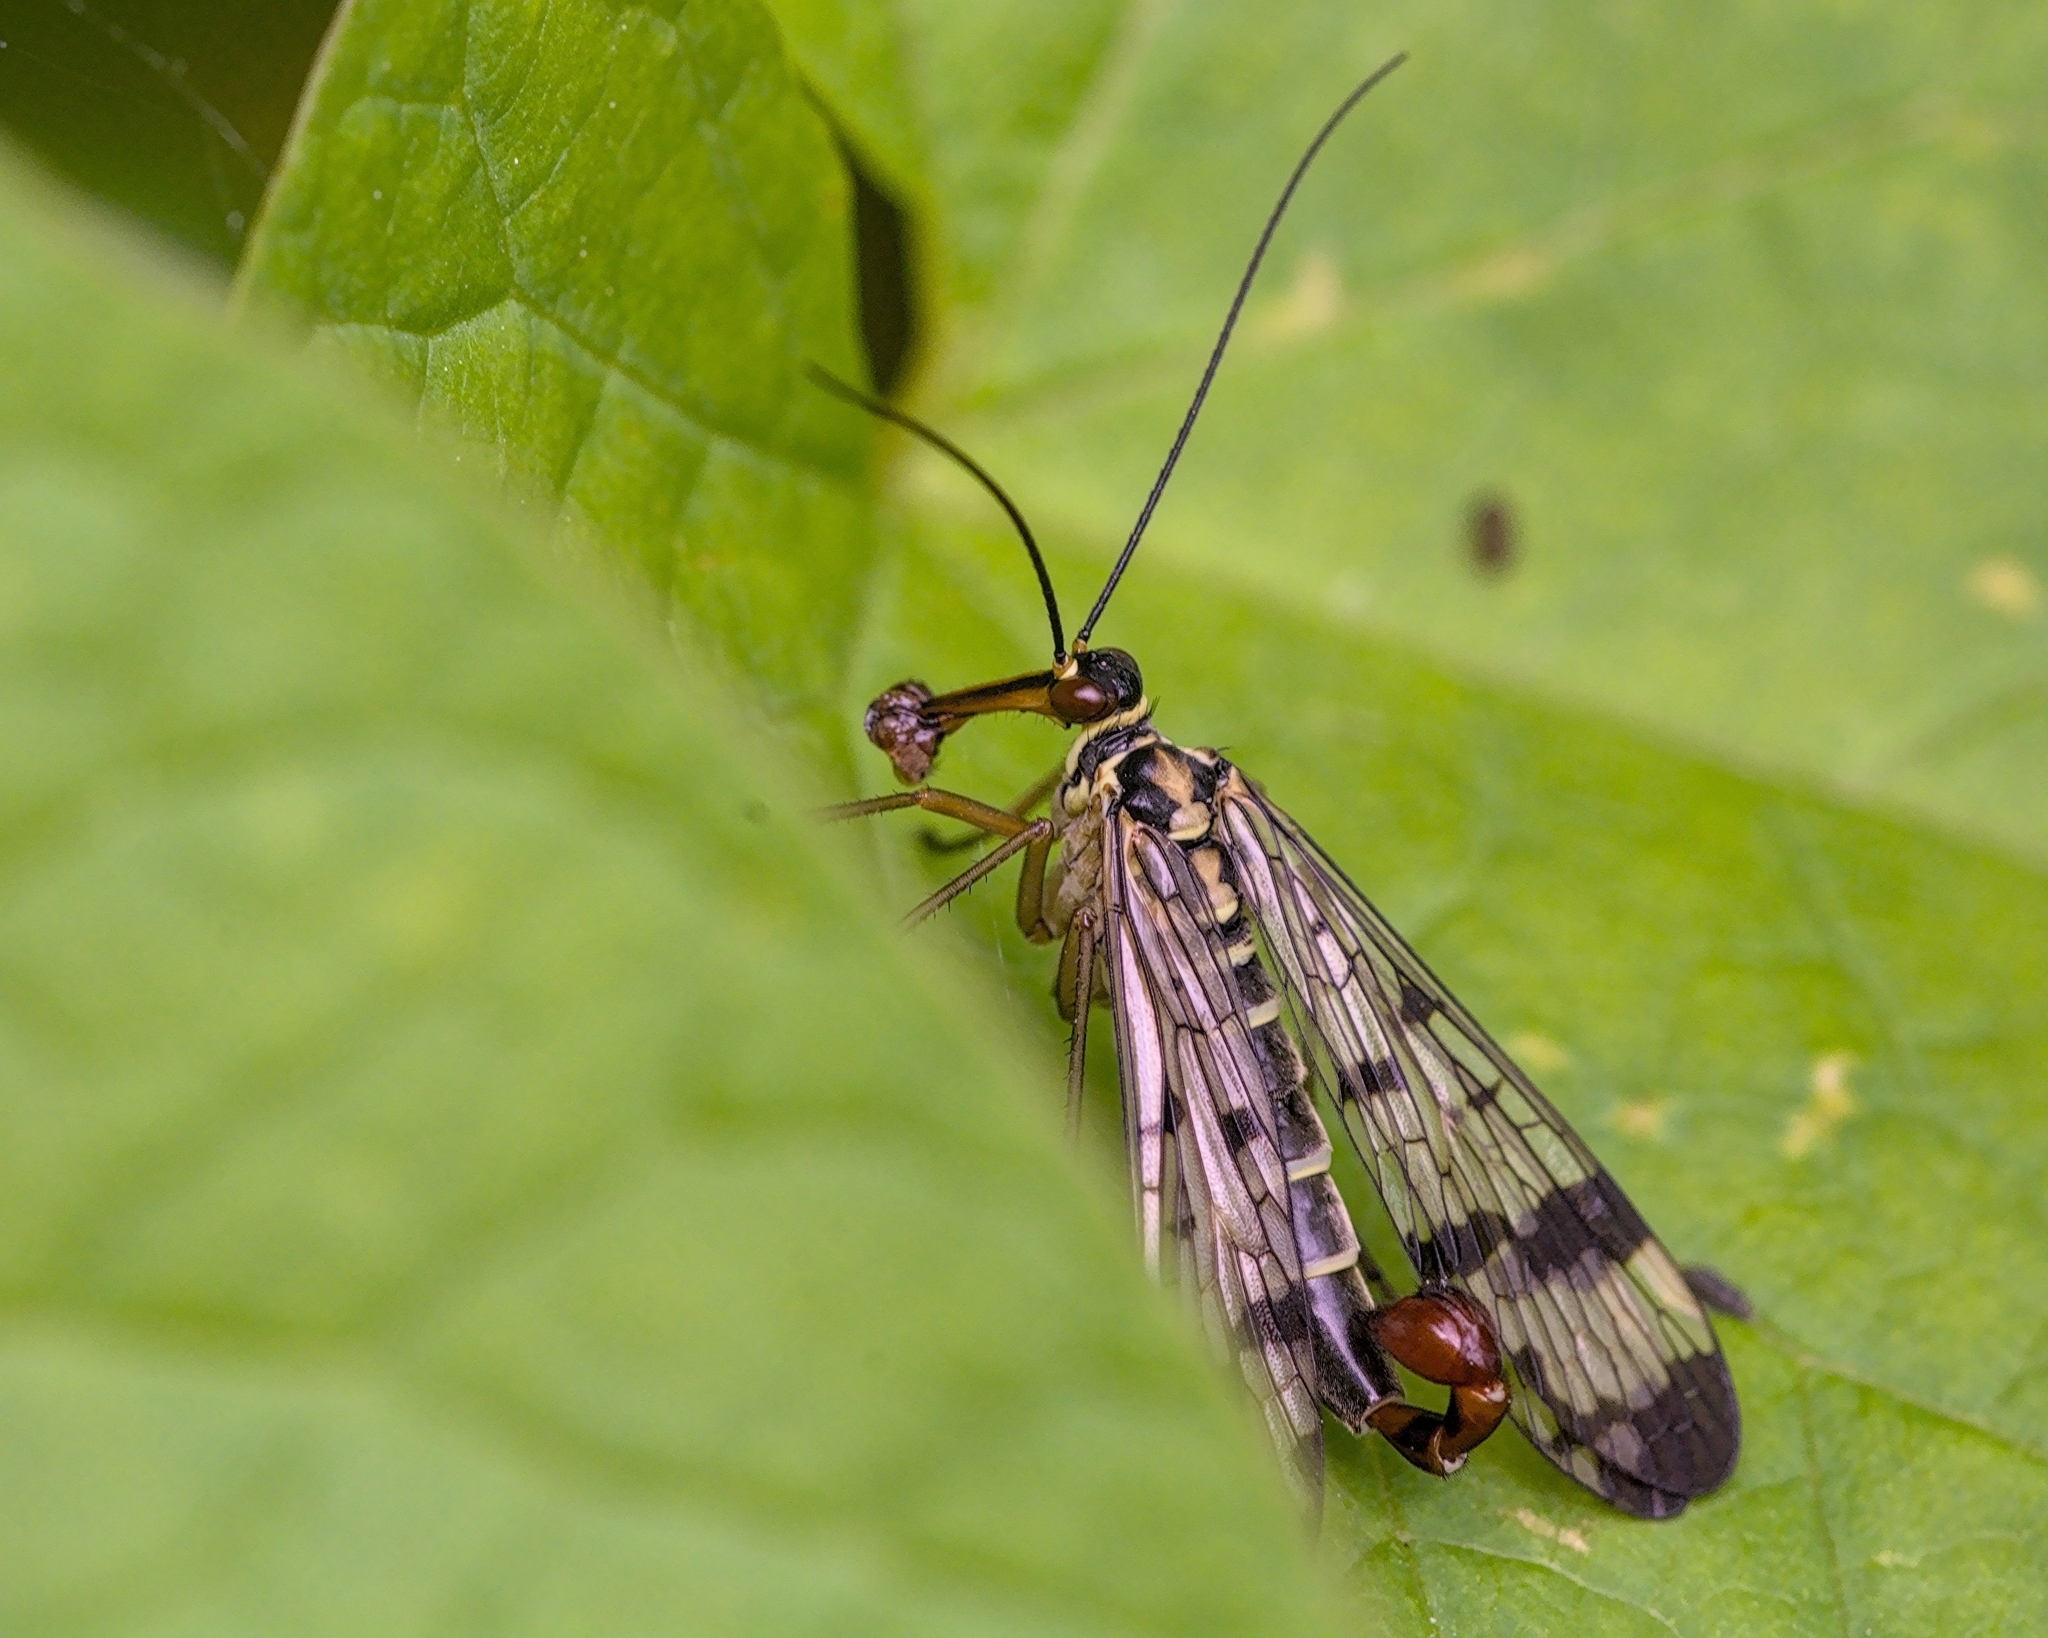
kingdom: Animalia
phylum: Arthropoda
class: Insecta
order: Mecoptera
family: Panorpidae
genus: Panorpa
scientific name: Panorpa communis
